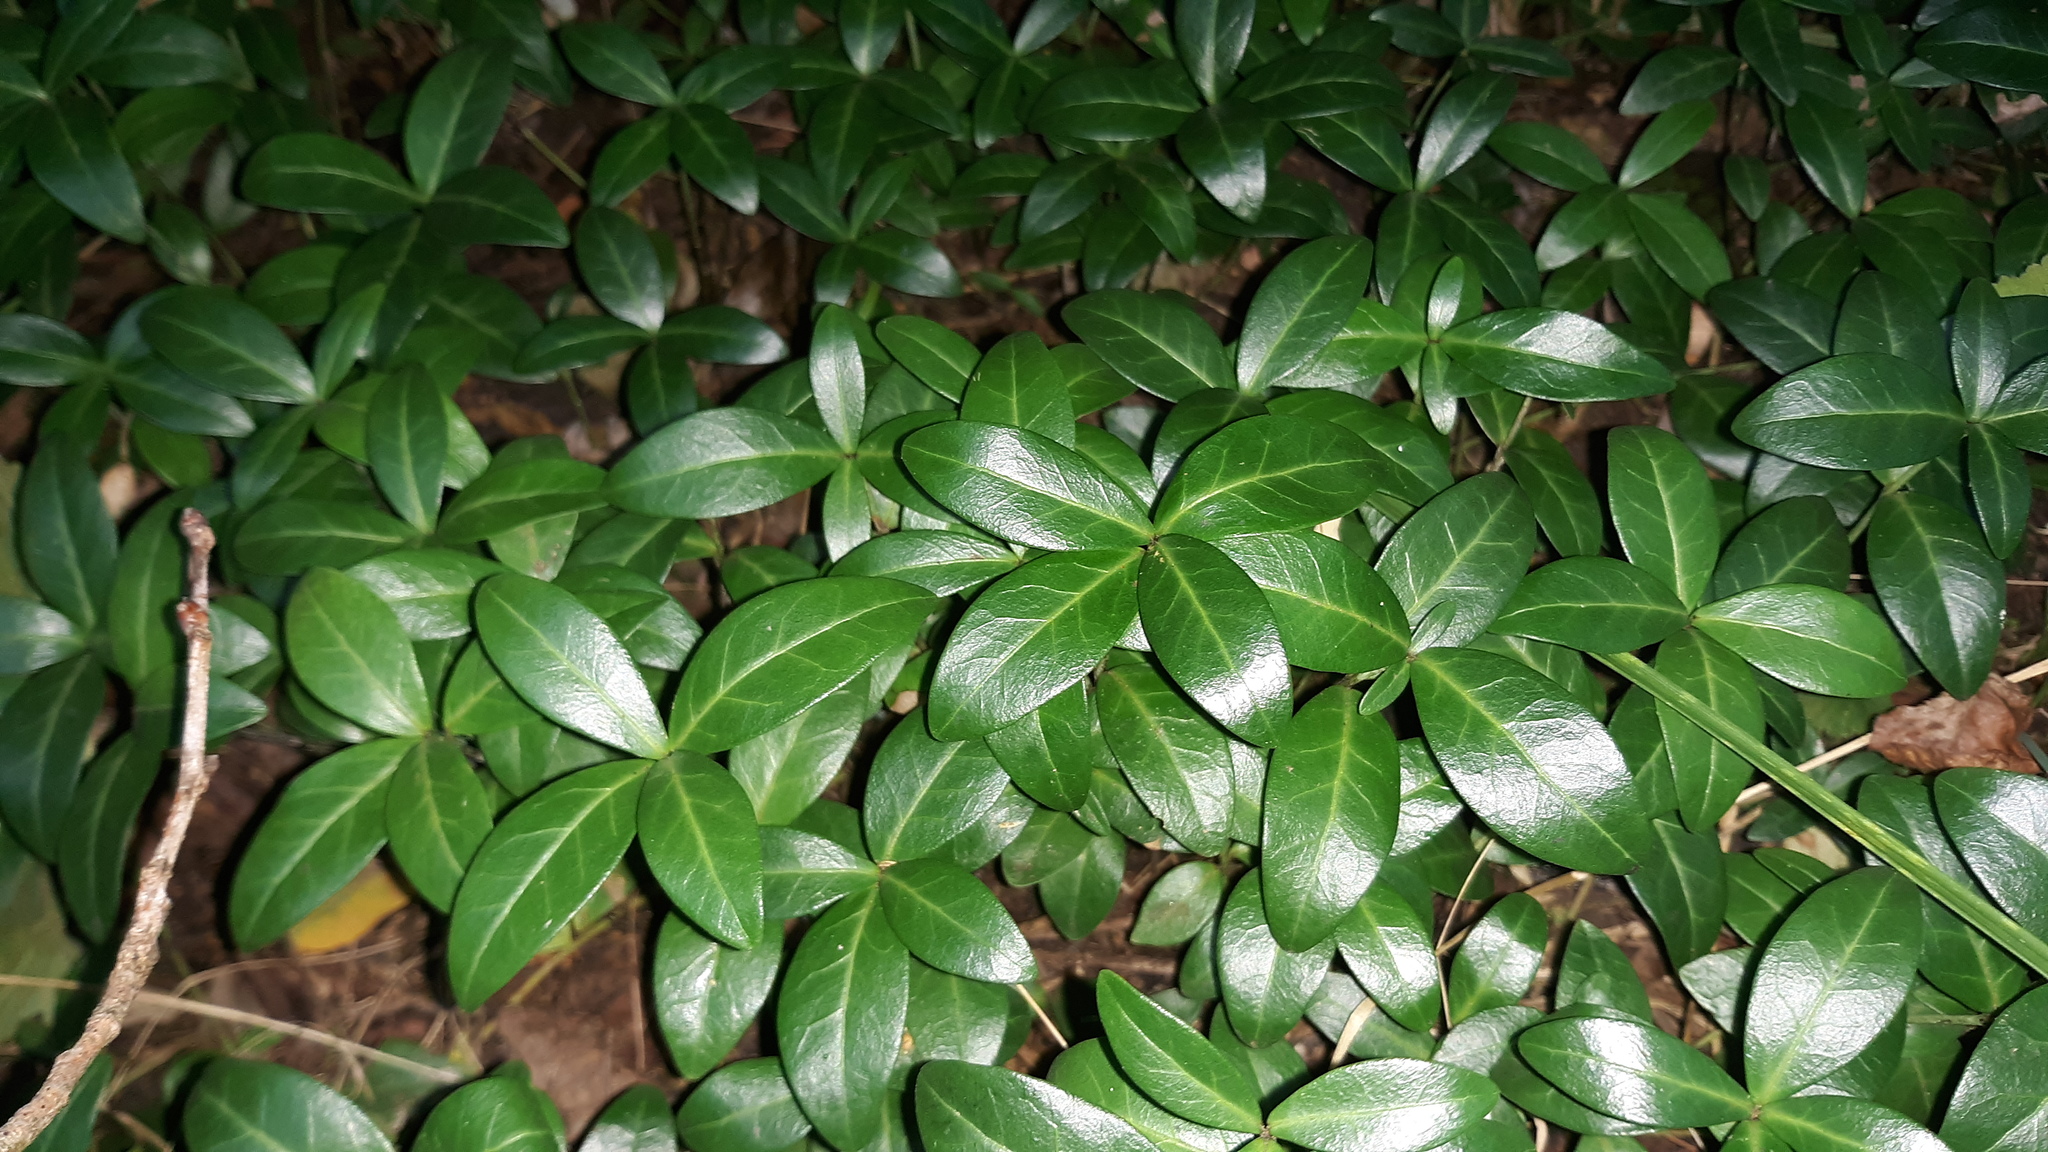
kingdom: Plantae
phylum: Tracheophyta
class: Magnoliopsida
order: Gentianales
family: Apocynaceae
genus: Vinca
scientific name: Vinca minor
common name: Lesser periwinkle
